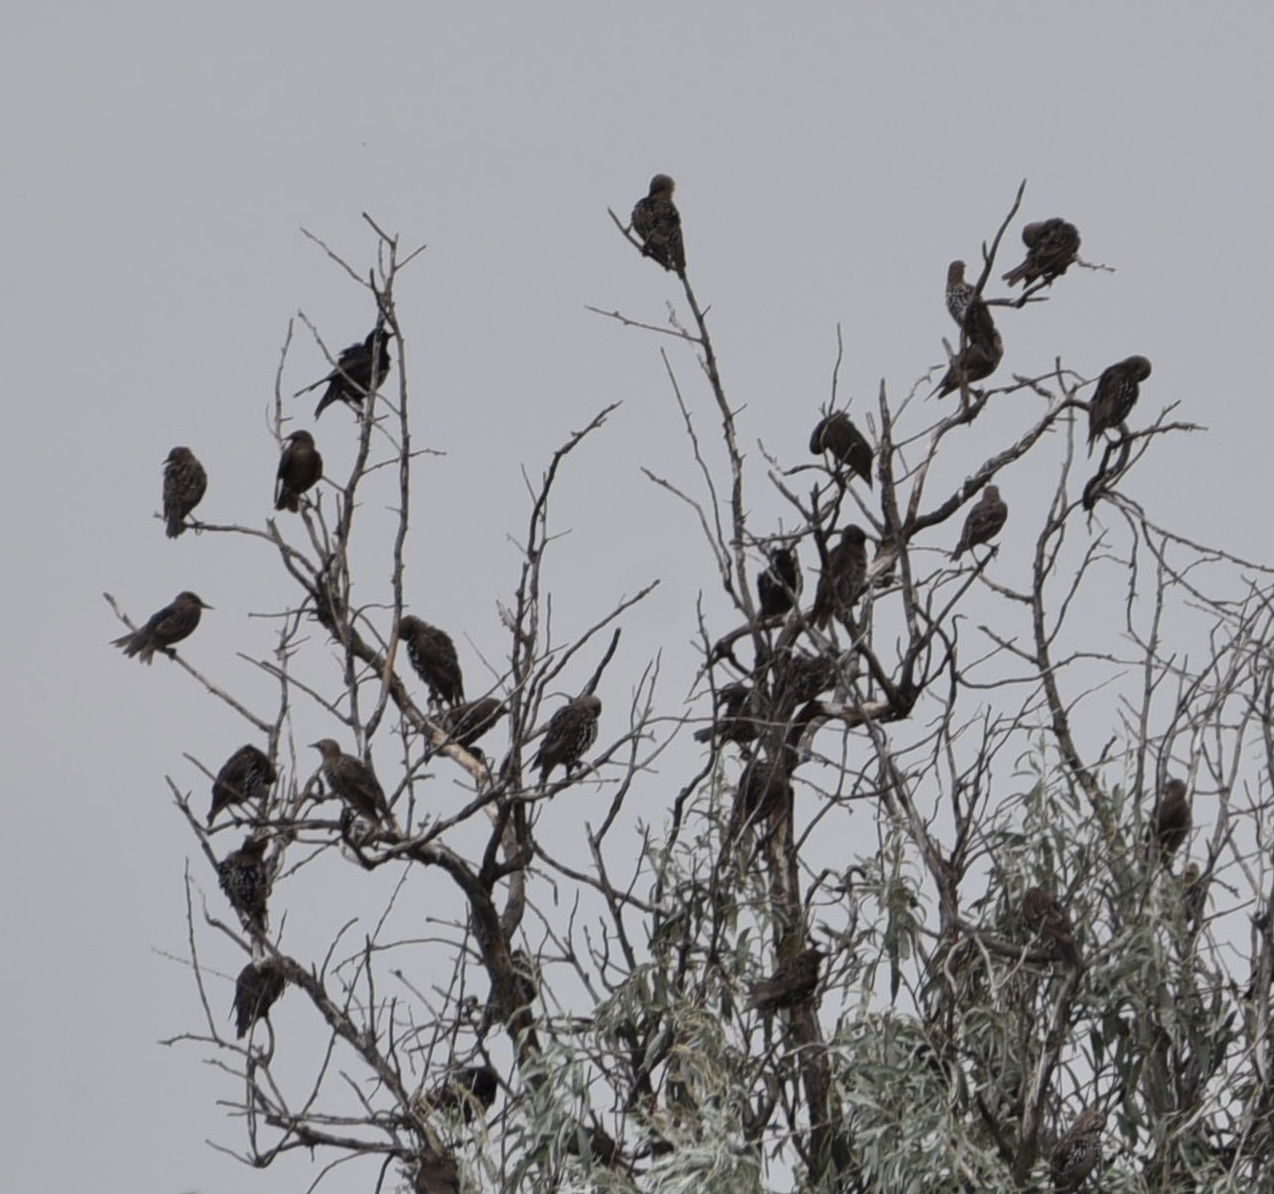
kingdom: Animalia
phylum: Chordata
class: Aves
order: Passeriformes
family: Sturnidae
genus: Sturnus
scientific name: Sturnus vulgaris
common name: Common starling
